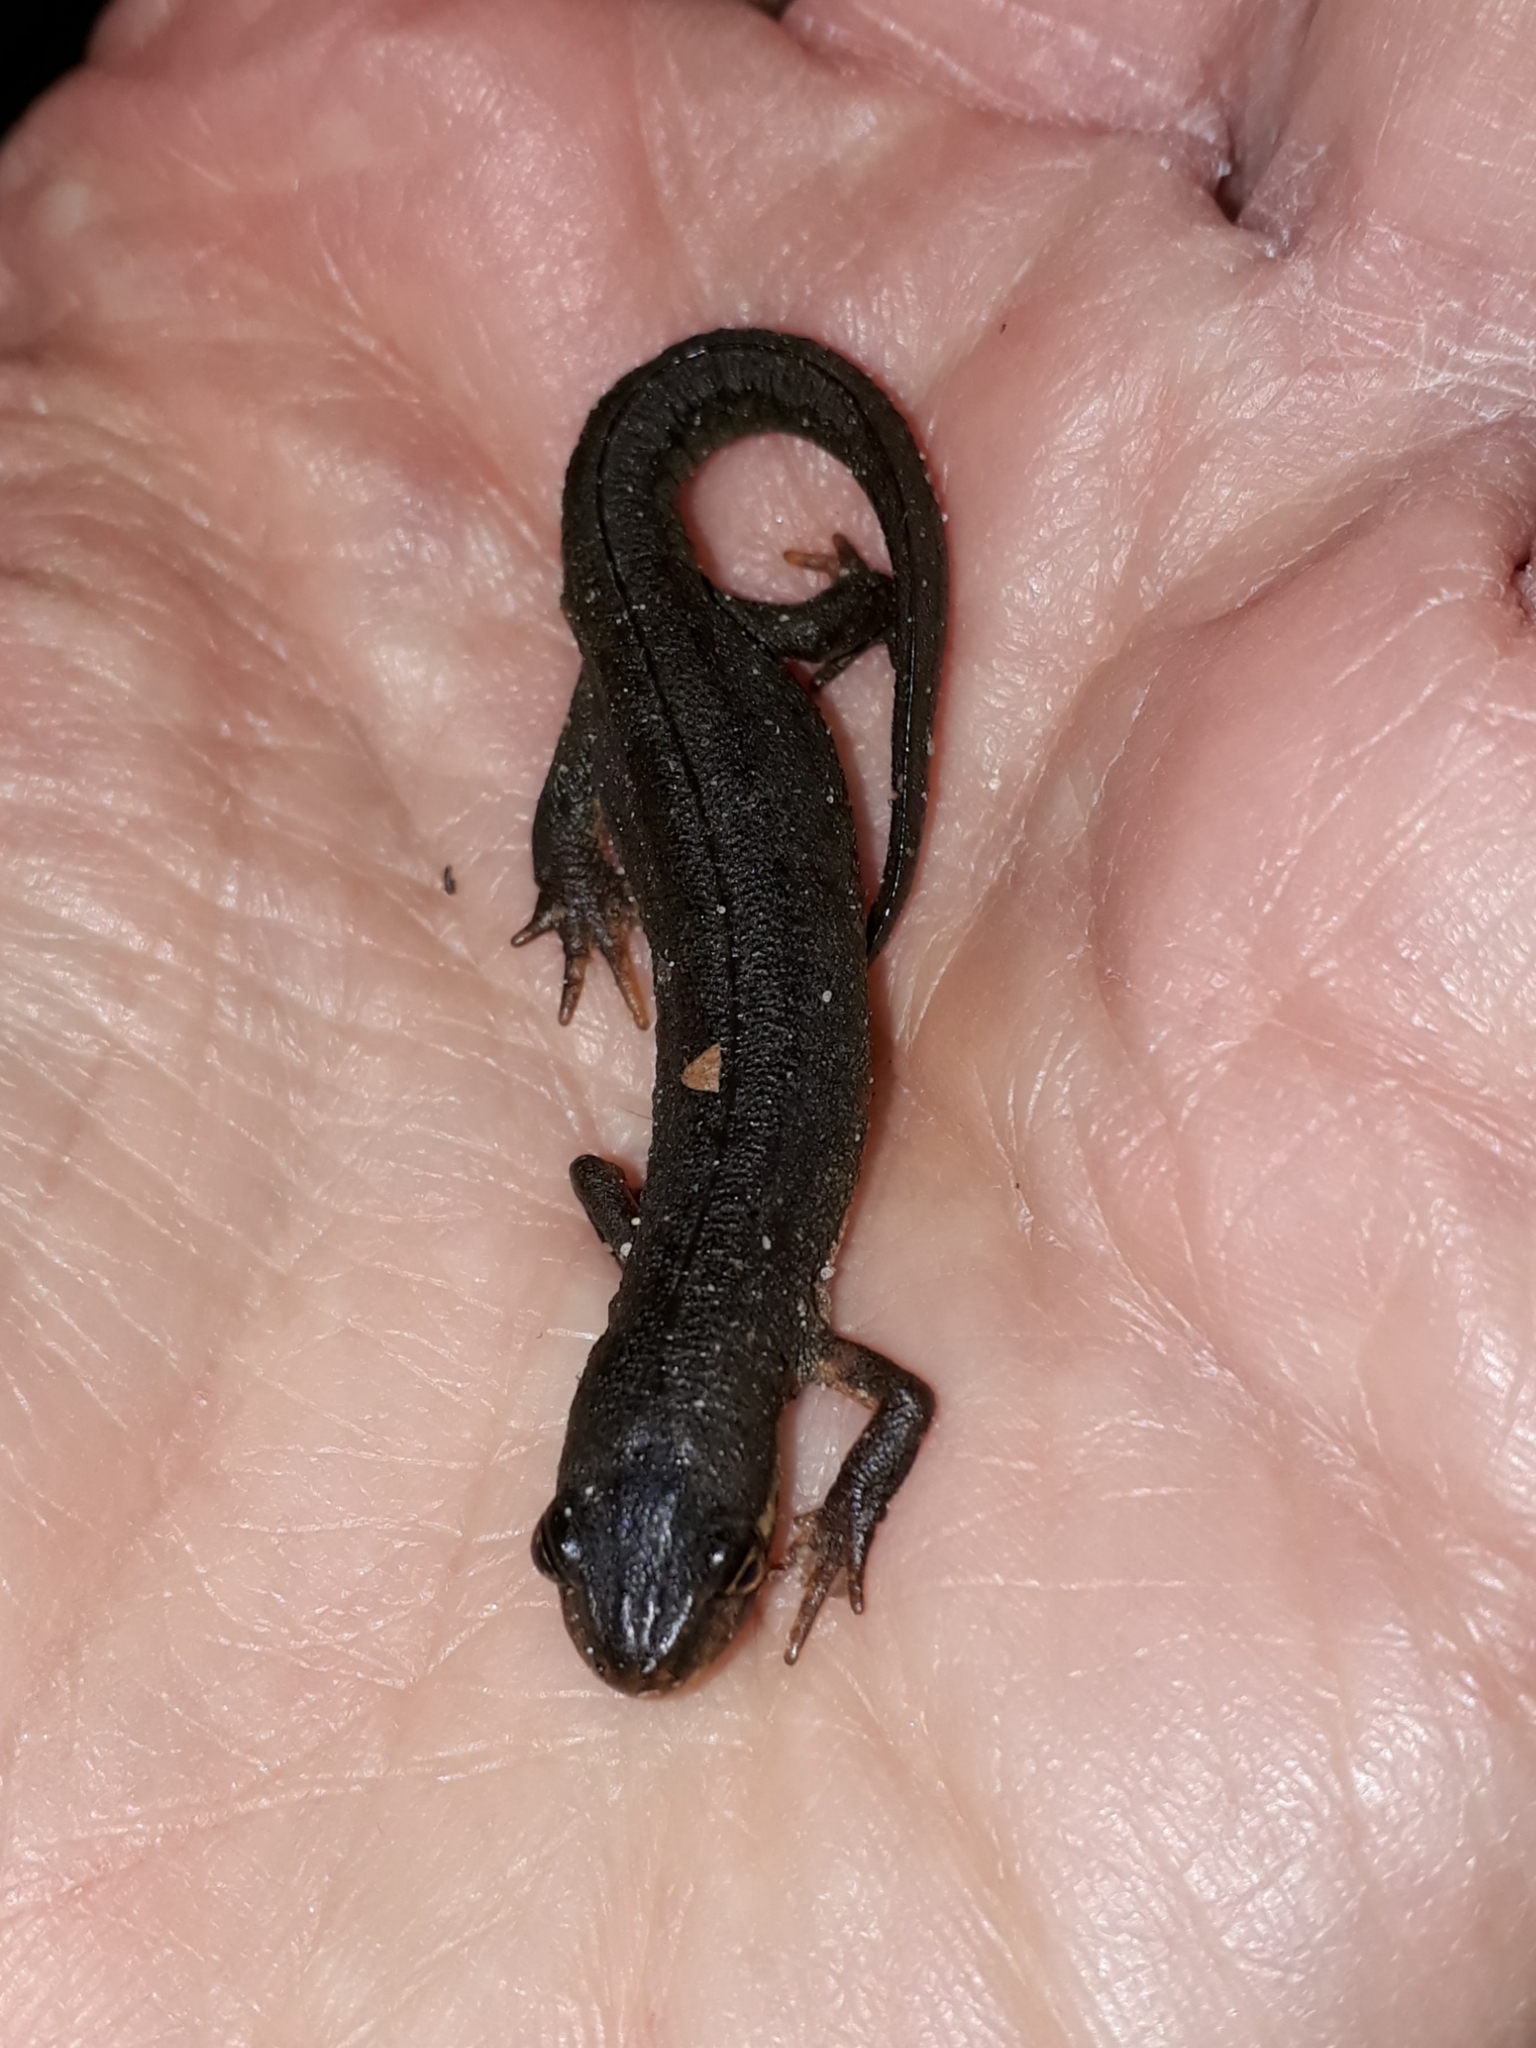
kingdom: Animalia
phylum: Chordata
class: Amphibia
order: Caudata
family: Salamandridae
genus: Lissotriton
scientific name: Lissotriton vulgaris
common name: Smooth newt
